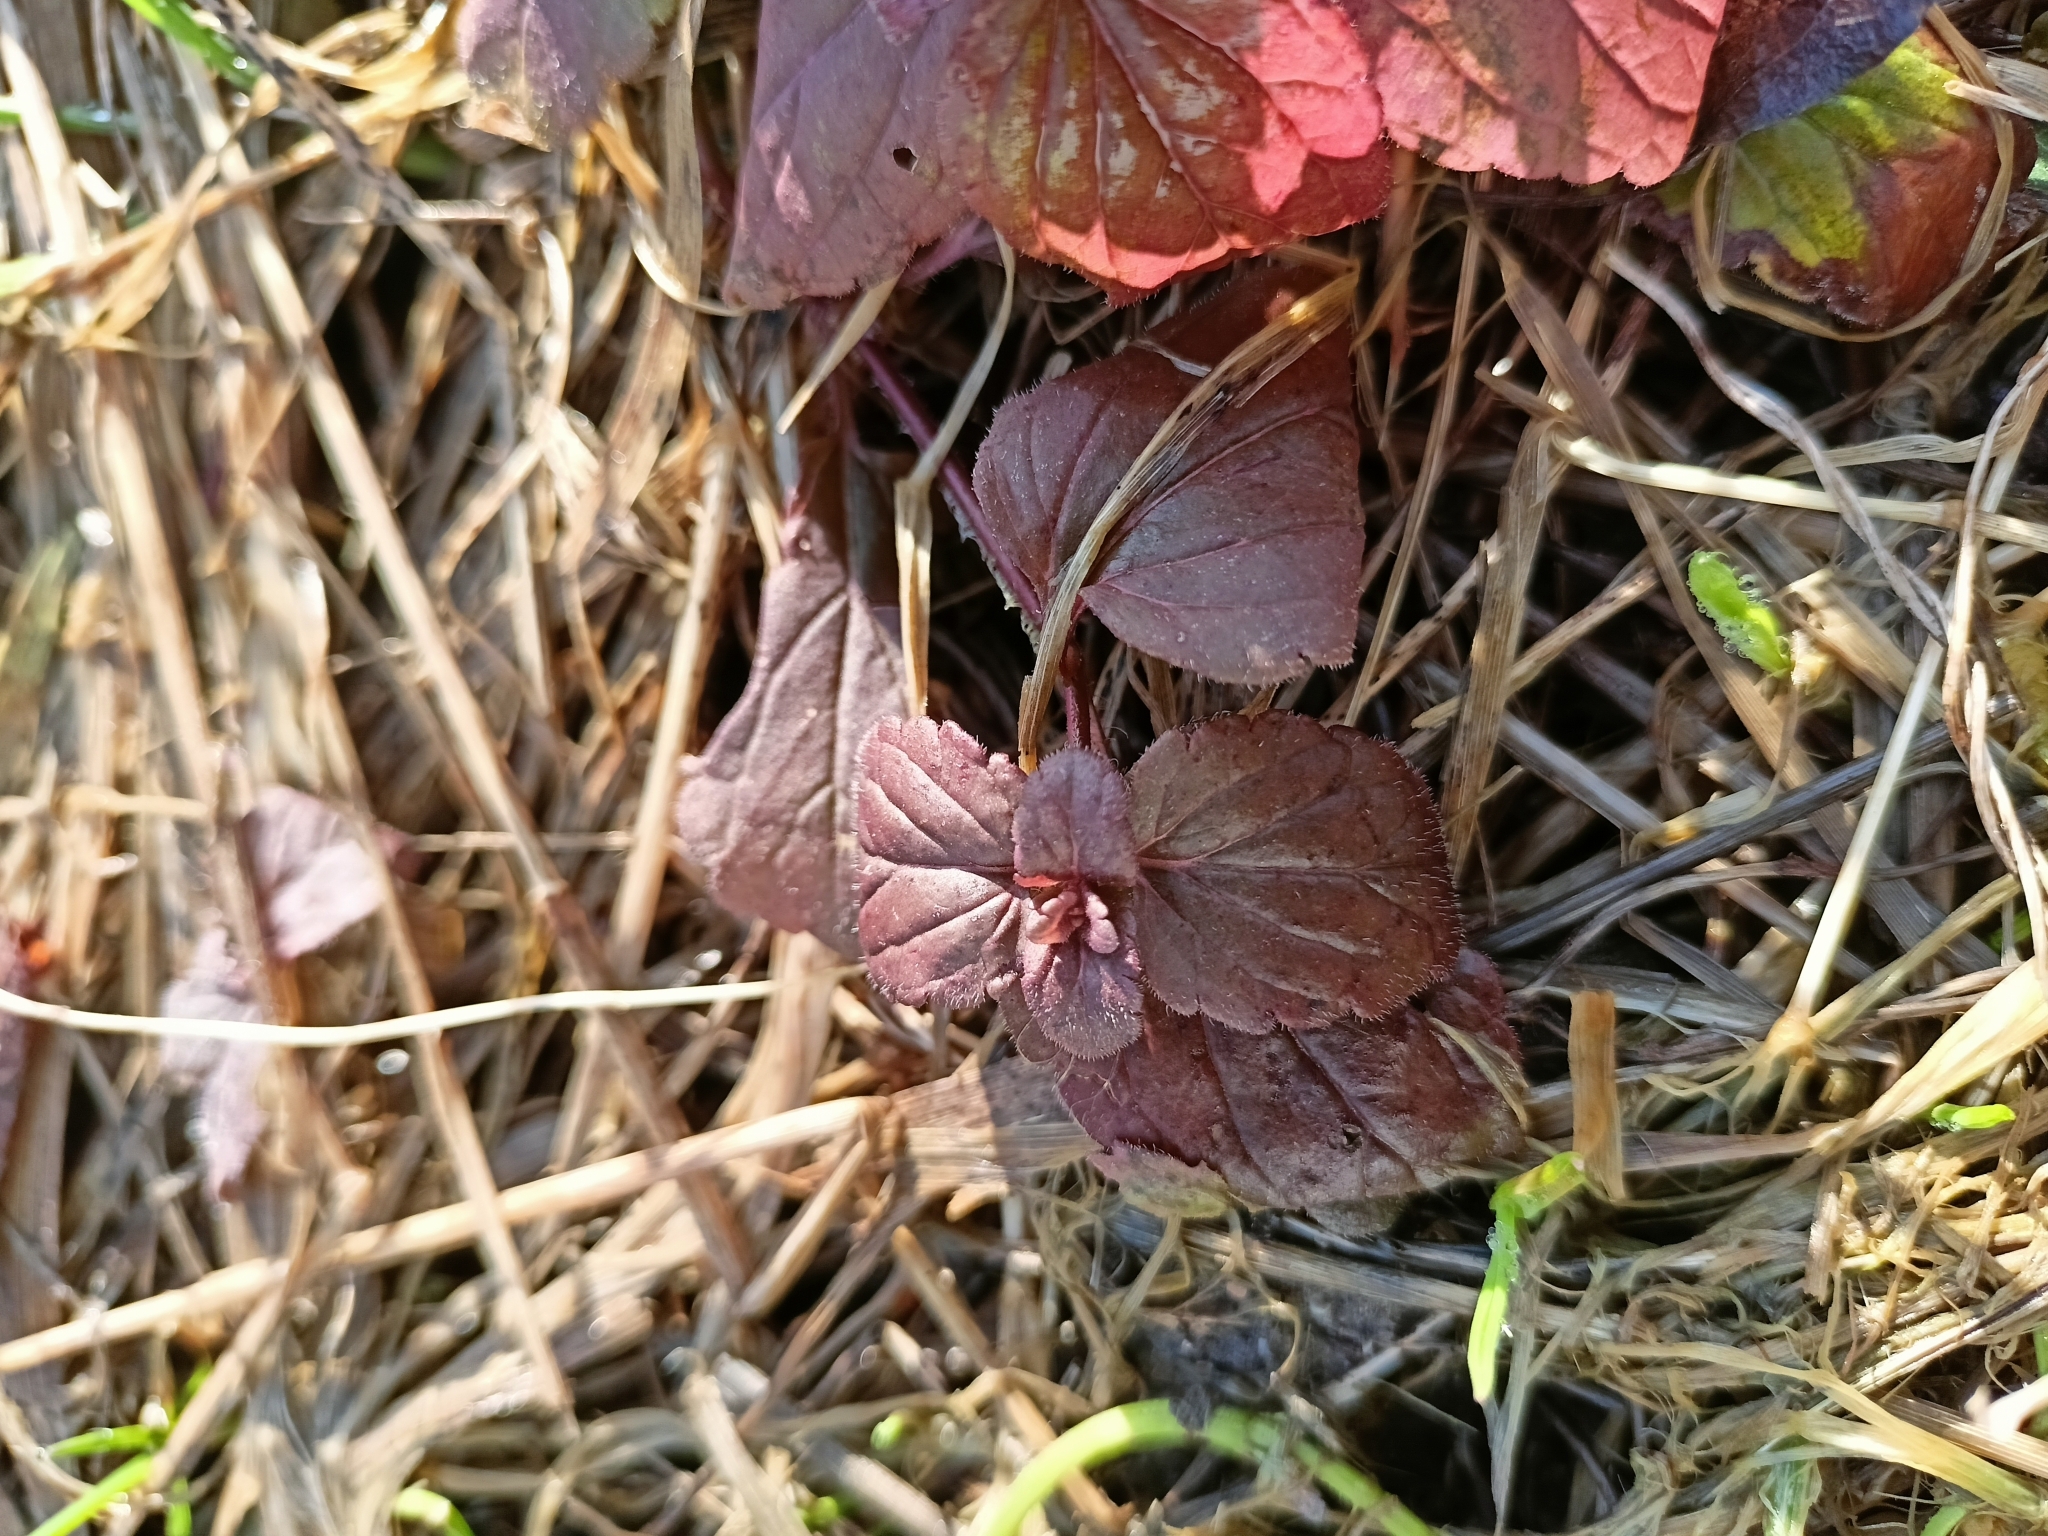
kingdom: Plantae
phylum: Tracheophyta
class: Magnoliopsida
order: Lamiales
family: Plantaginaceae
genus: Veronica
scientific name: Veronica chamaedrys
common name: Germander speedwell
